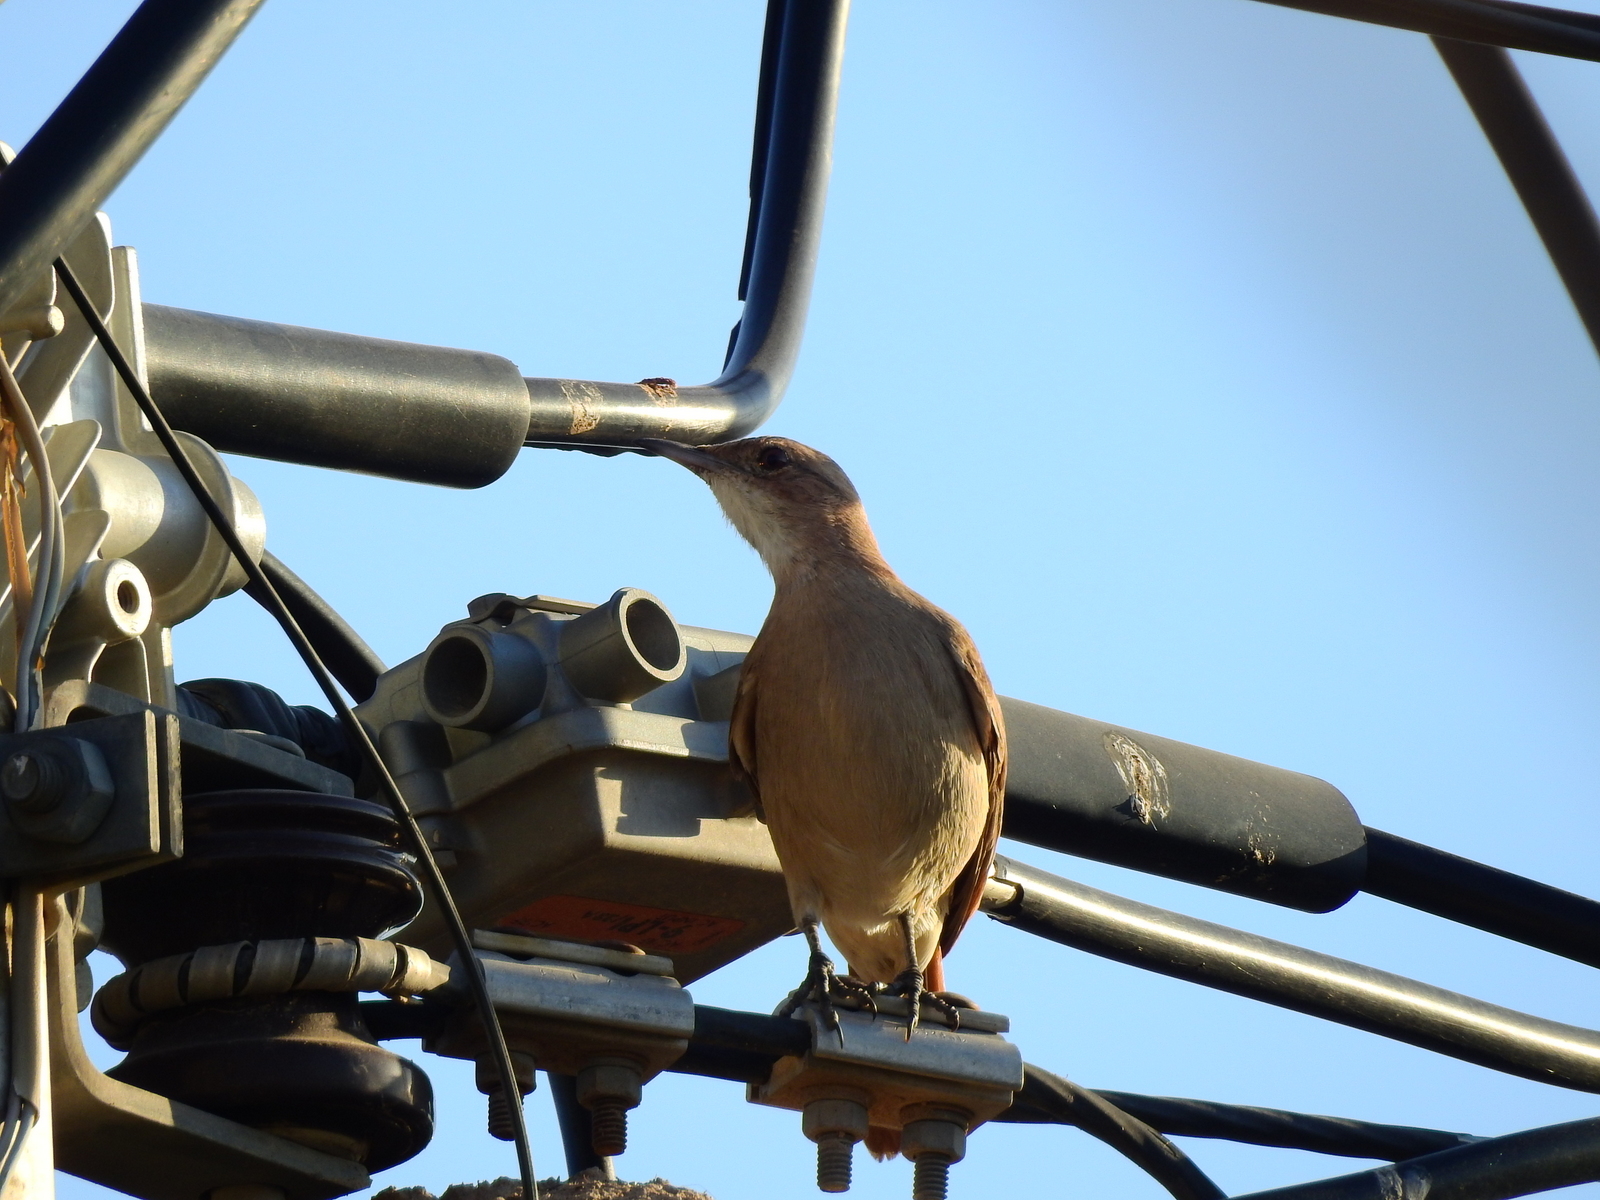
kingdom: Animalia
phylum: Chordata
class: Aves
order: Passeriformes
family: Furnariidae
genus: Furnarius
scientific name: Furnarius rufus
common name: Rufous hornero
